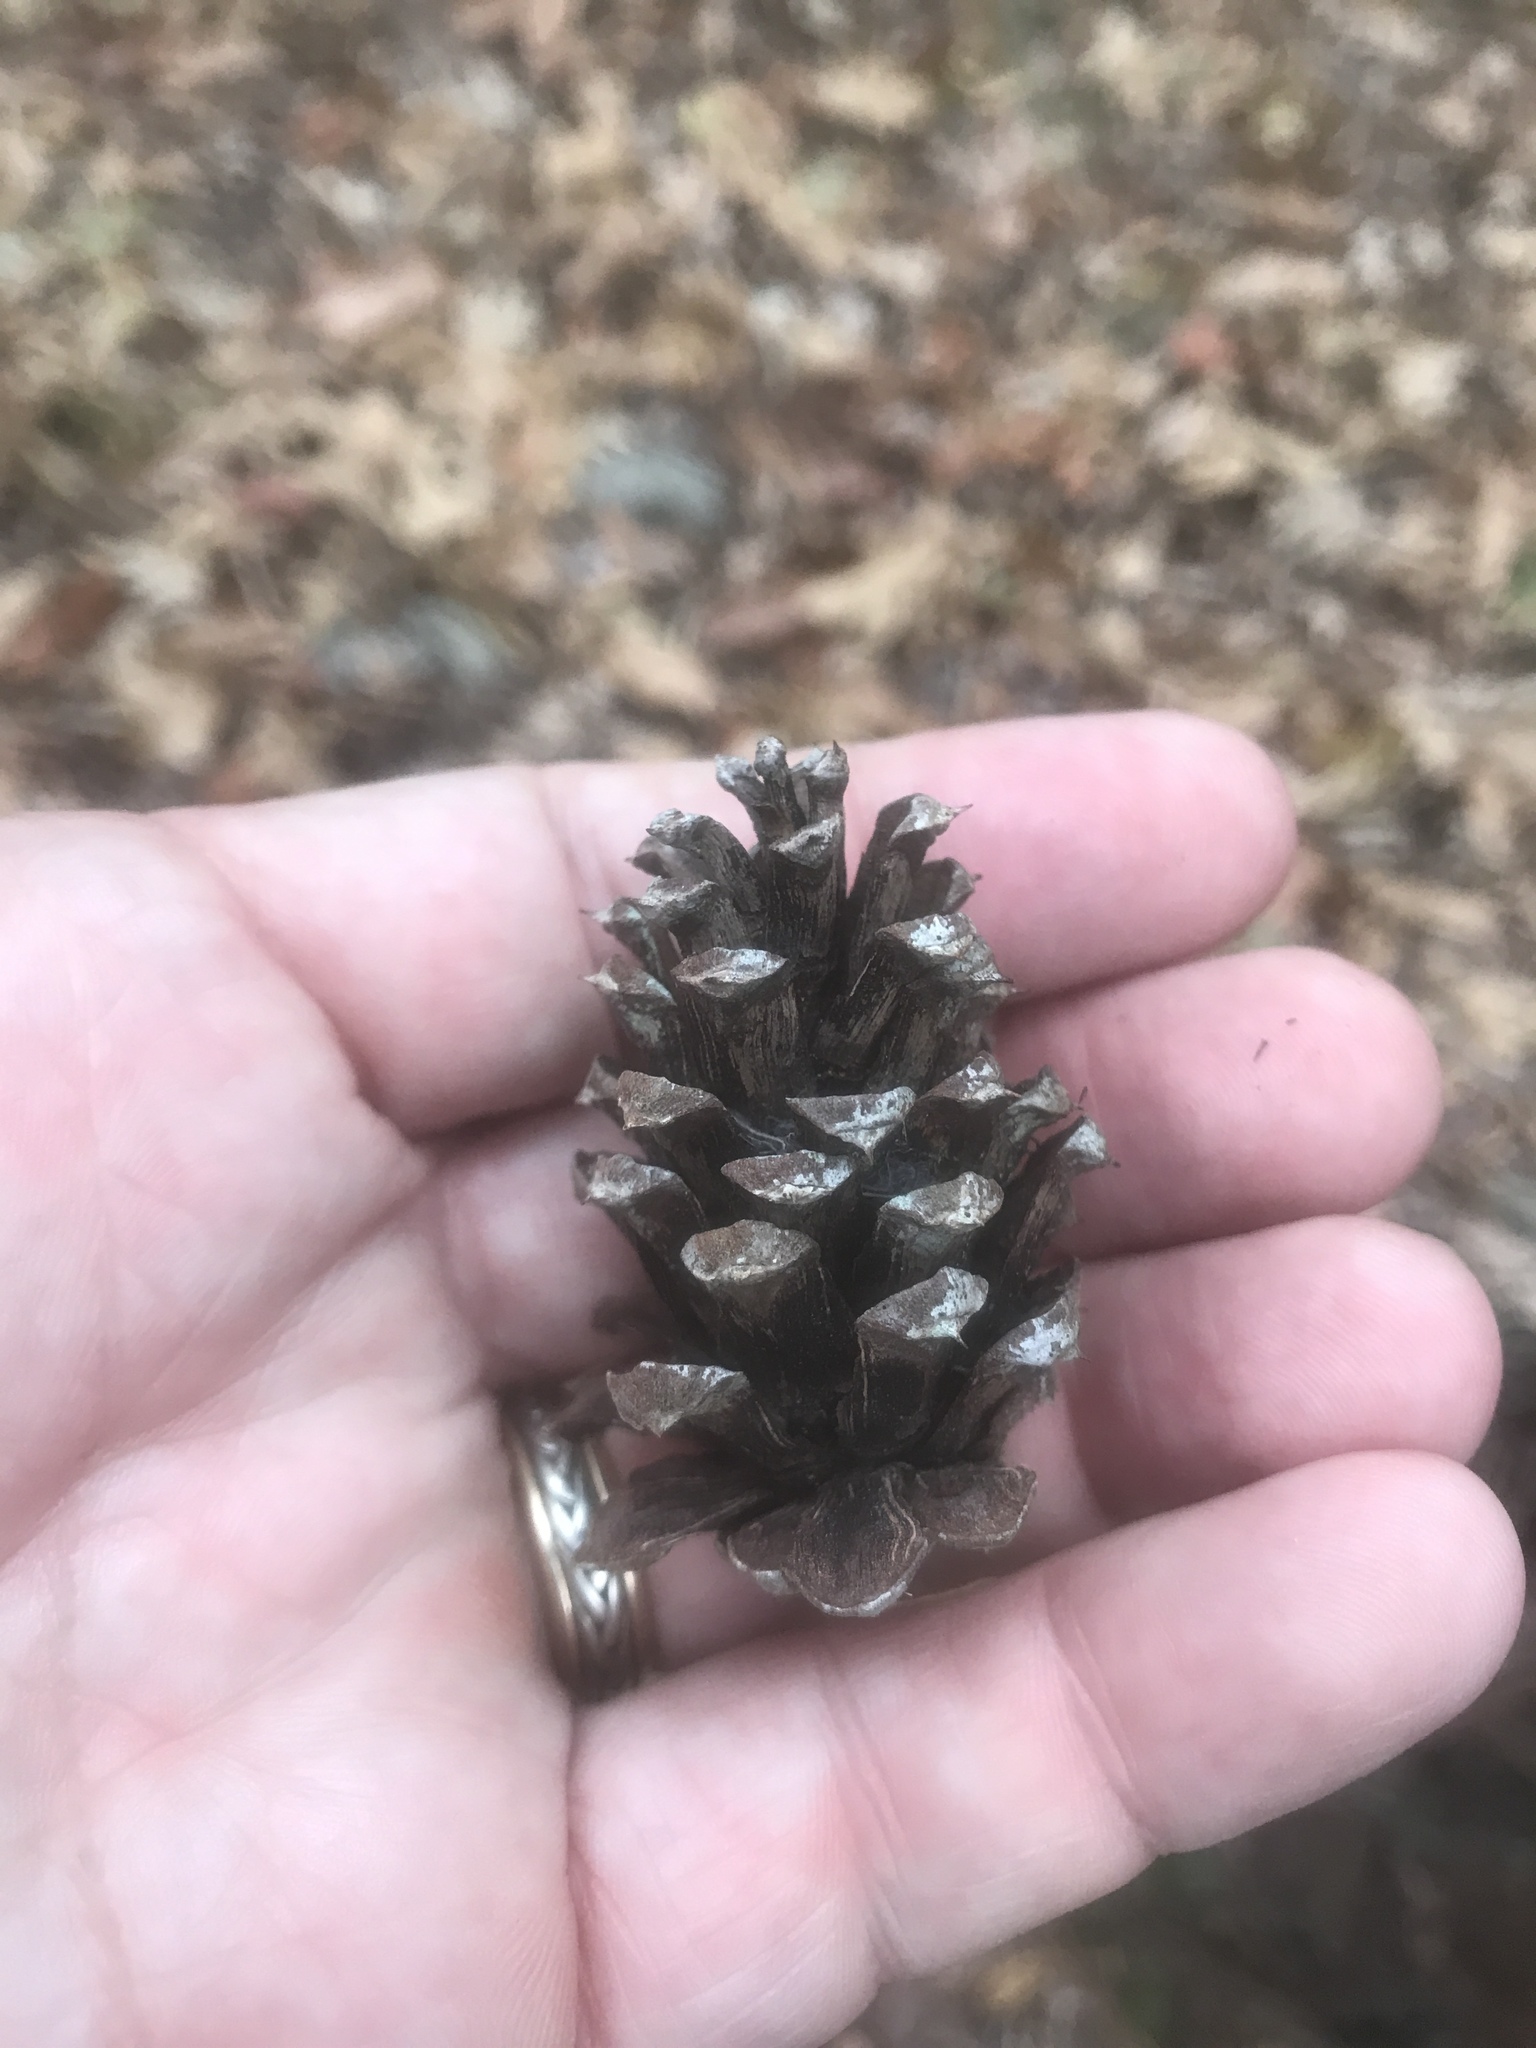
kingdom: Plantae
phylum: Tracheophyta
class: Pinopsida
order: Pinales
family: Pinaceae
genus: Pinus
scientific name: Pinus echinata
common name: Shortleaf pine
